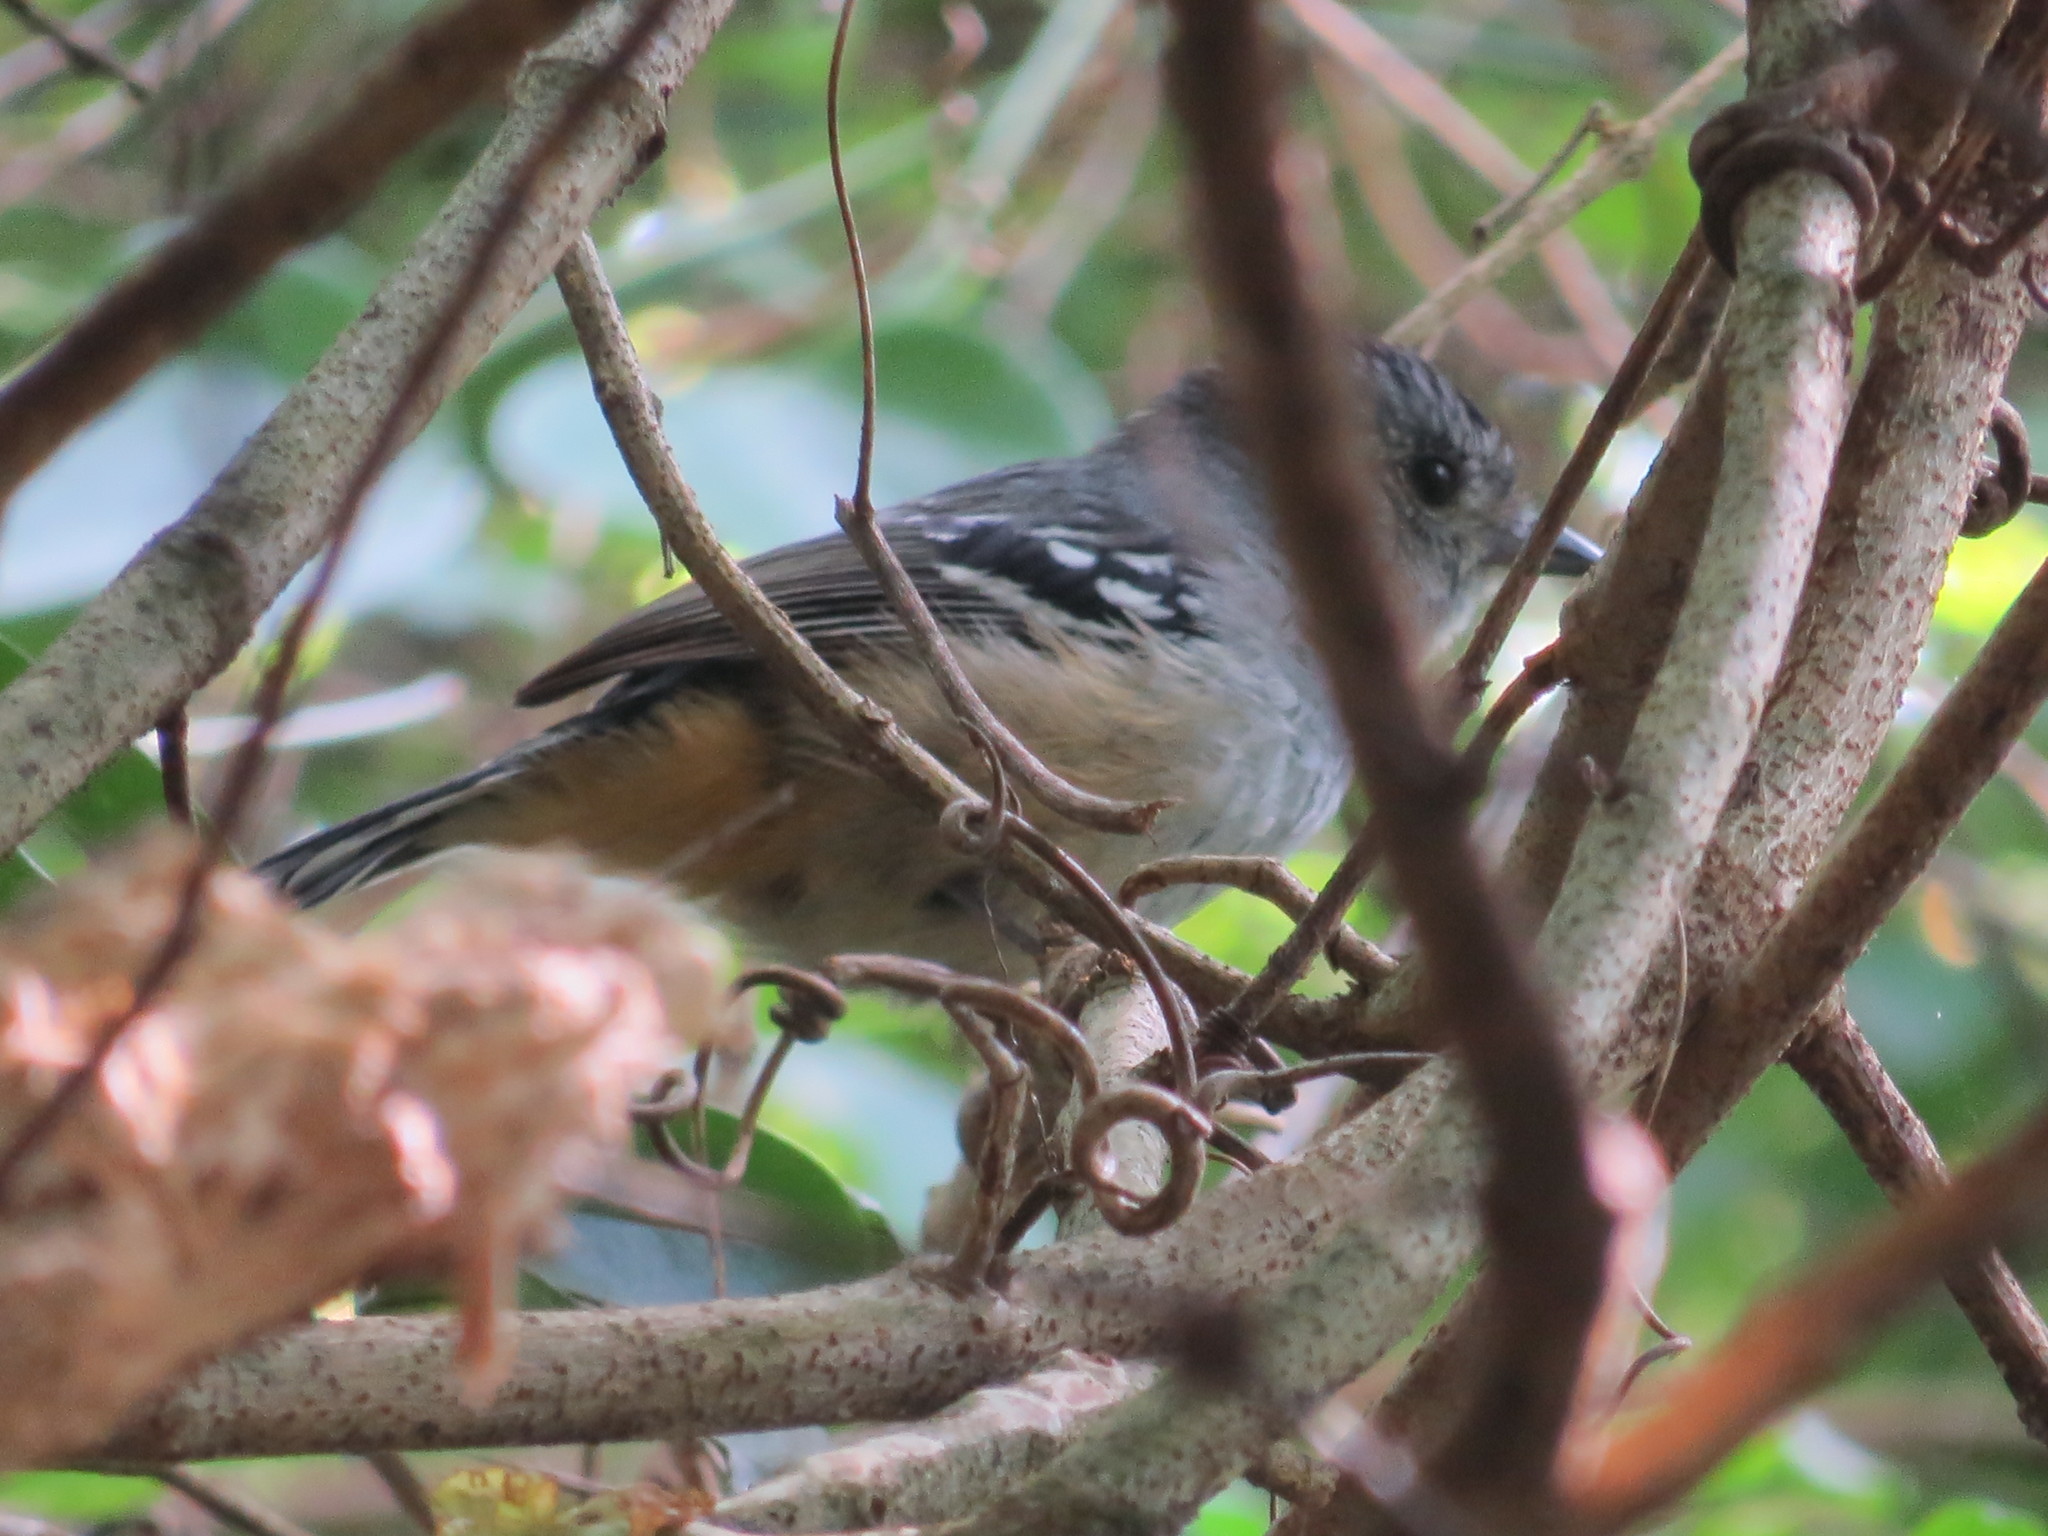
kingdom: Animalia
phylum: Chordata
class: Aves
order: Passeriformes
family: Thamnophilidae
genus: Thamnophilus
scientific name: Thamnophilus caerulescens
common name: Variable antshrike
